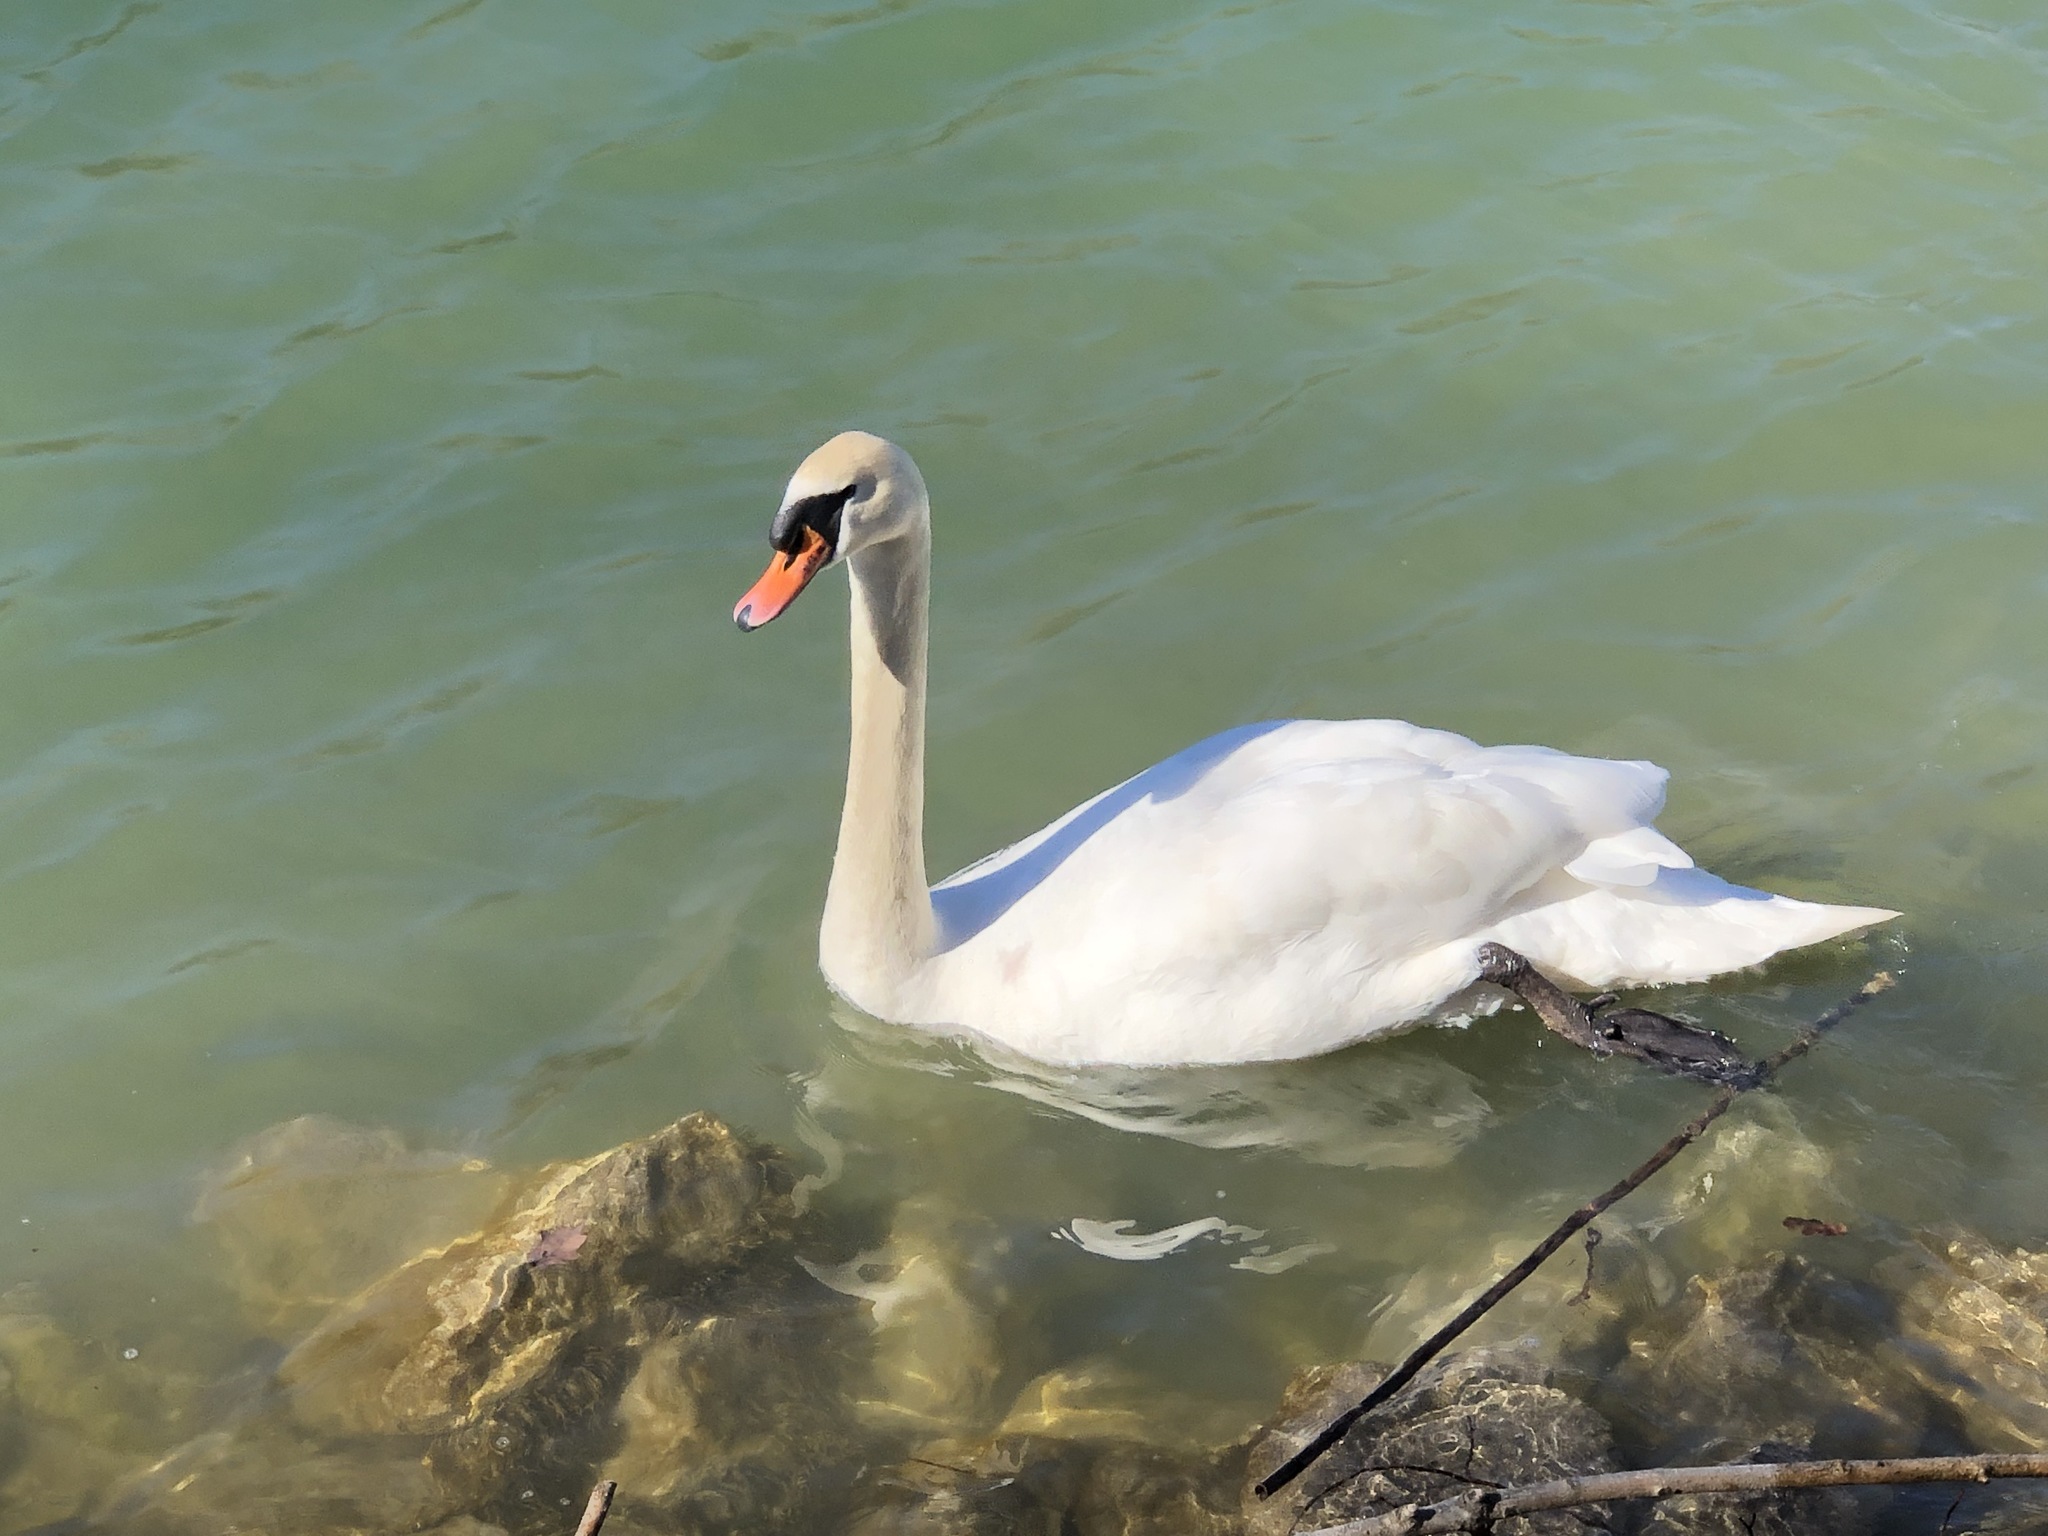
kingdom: Animalia
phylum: Chordata
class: Aves
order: Anseriformes
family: Anatidae
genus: Cygnus
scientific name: Cygnus olor
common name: Mute swan
